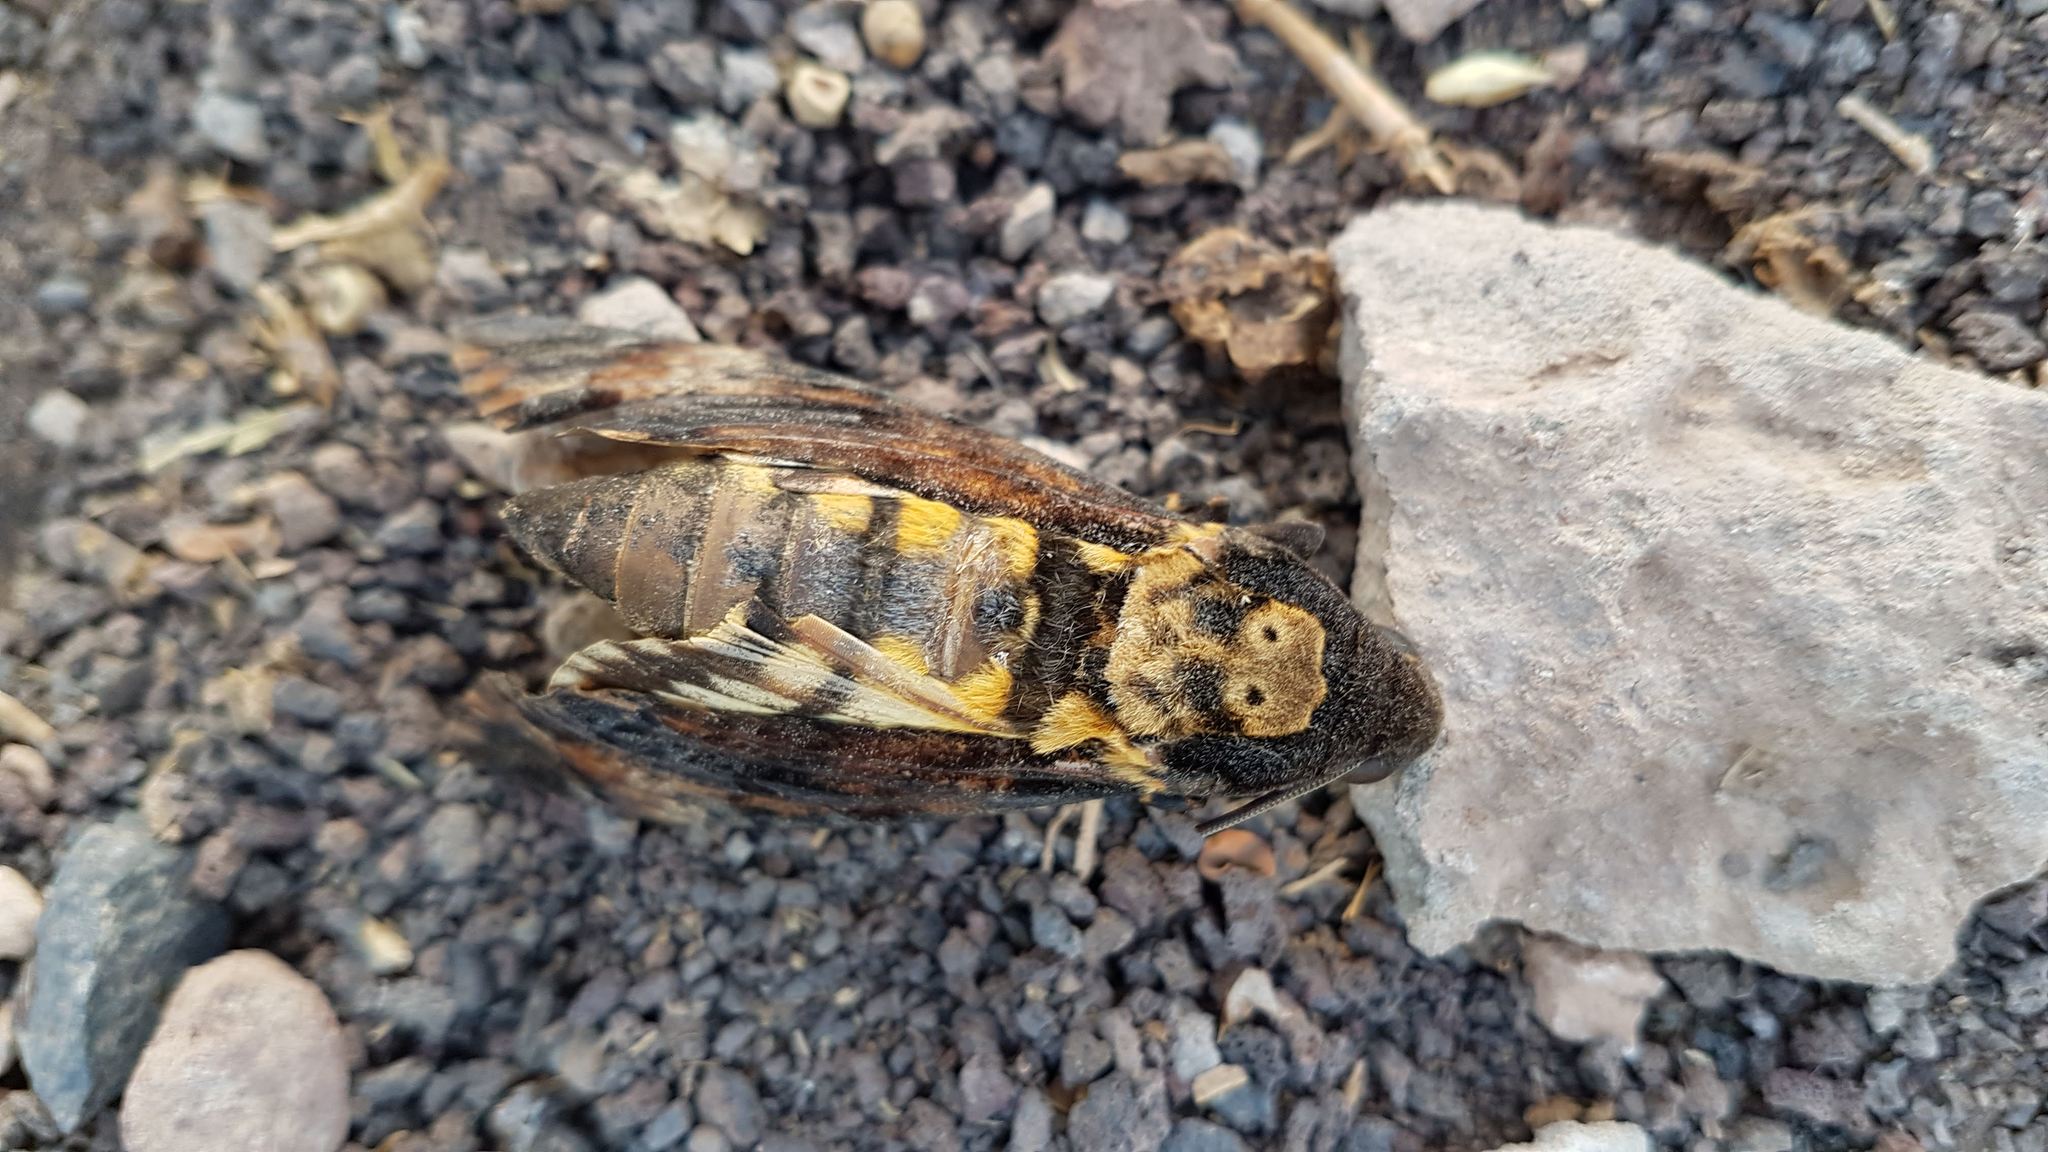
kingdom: Animalia
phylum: Arthropoda
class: Insecta
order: Lepidoptera
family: Sphingidae
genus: Acherontia
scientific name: Acherontia atropos
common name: Death's-head hawk moth
